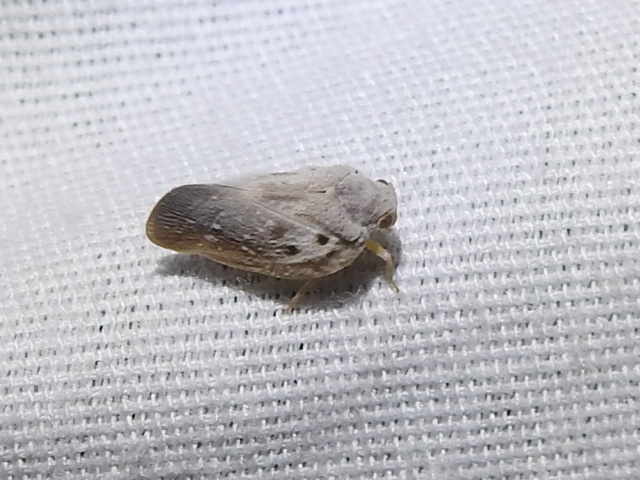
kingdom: Animalia
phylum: Arthropoda
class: Insecta
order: Hemiptera
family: Flatidae
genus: Metcalfa
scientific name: Metcalfa pruinosa
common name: Citrus flatid planthopper
